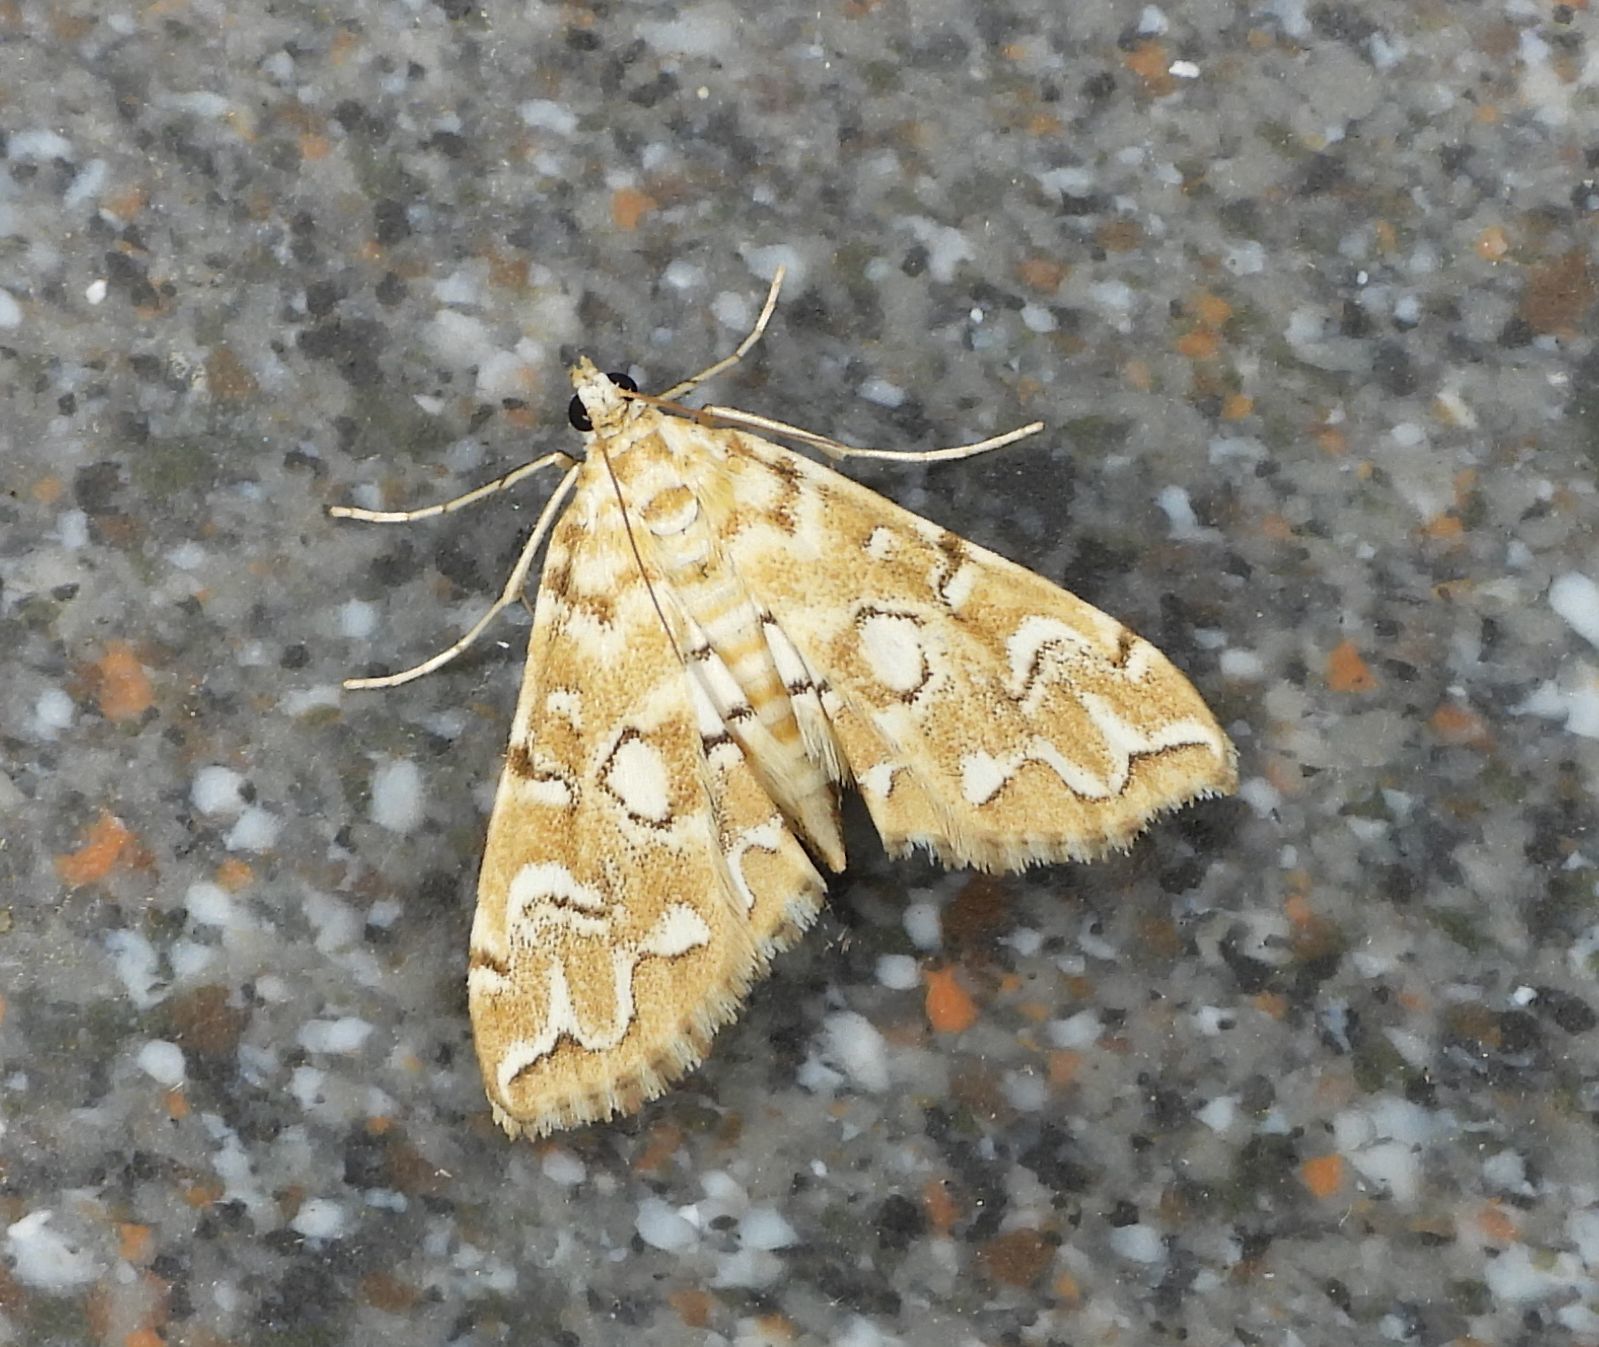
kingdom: Animalia
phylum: Arthropoda
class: Insecta
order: Lepidoptera
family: Crambidae
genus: Elophila
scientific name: Elophila icciusalis
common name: Pondside pyralid moth
